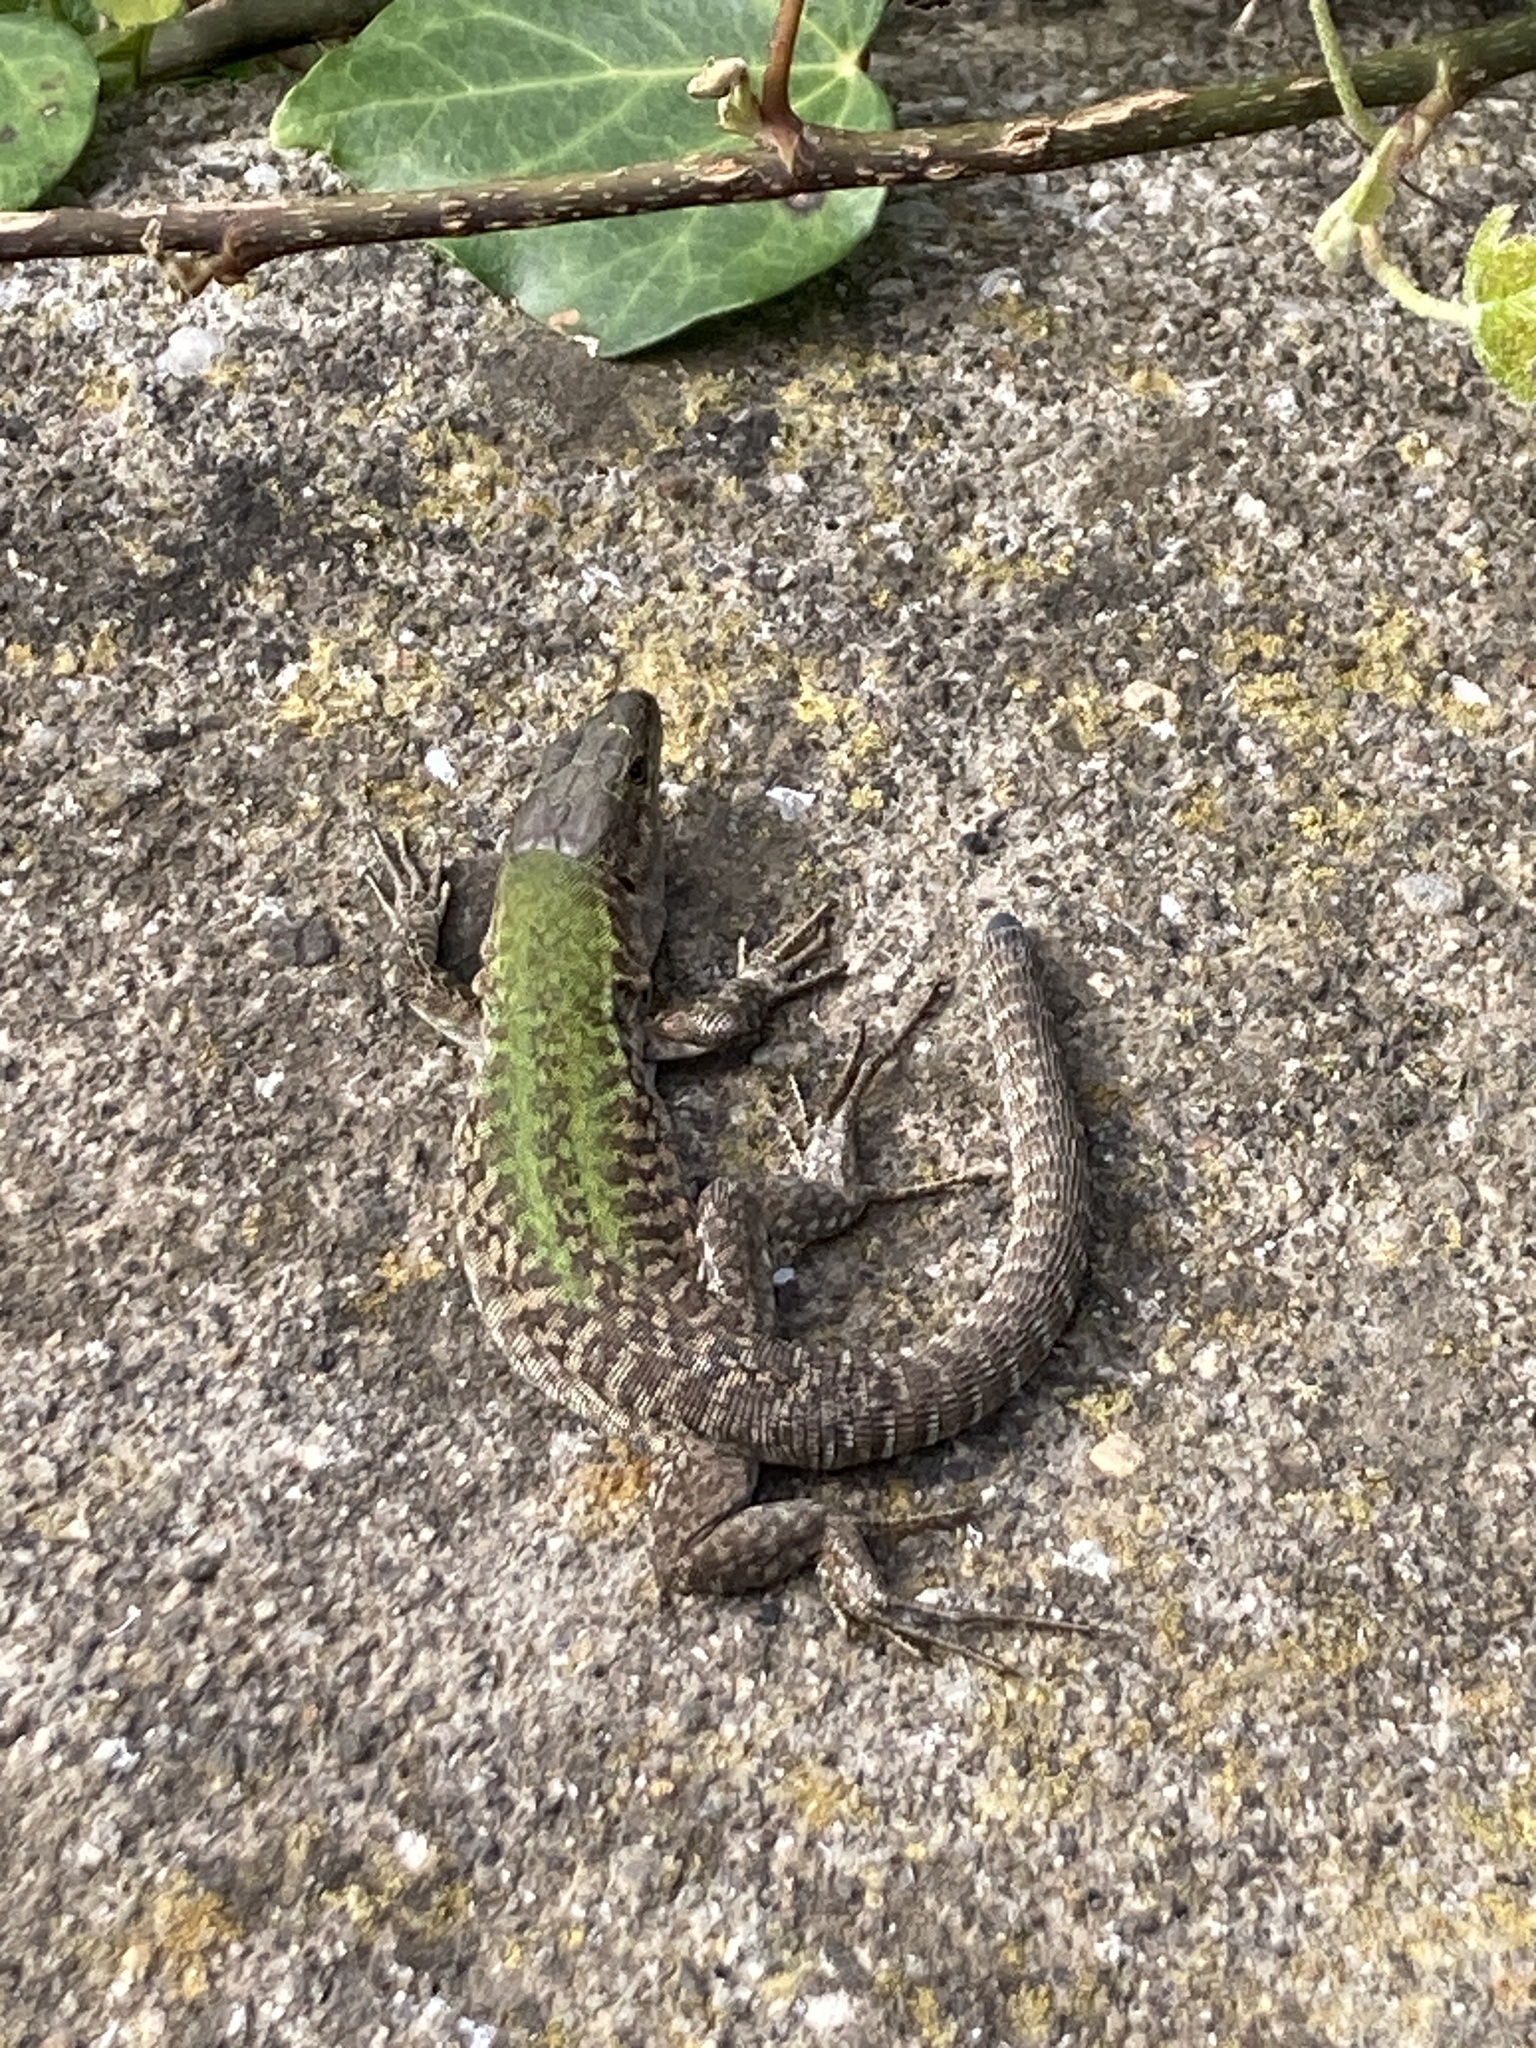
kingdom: Animalia
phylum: Chordata
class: Squamata
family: Lacertidae
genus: Podarcis
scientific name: Podarcis siculus
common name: Italian wall lizard
